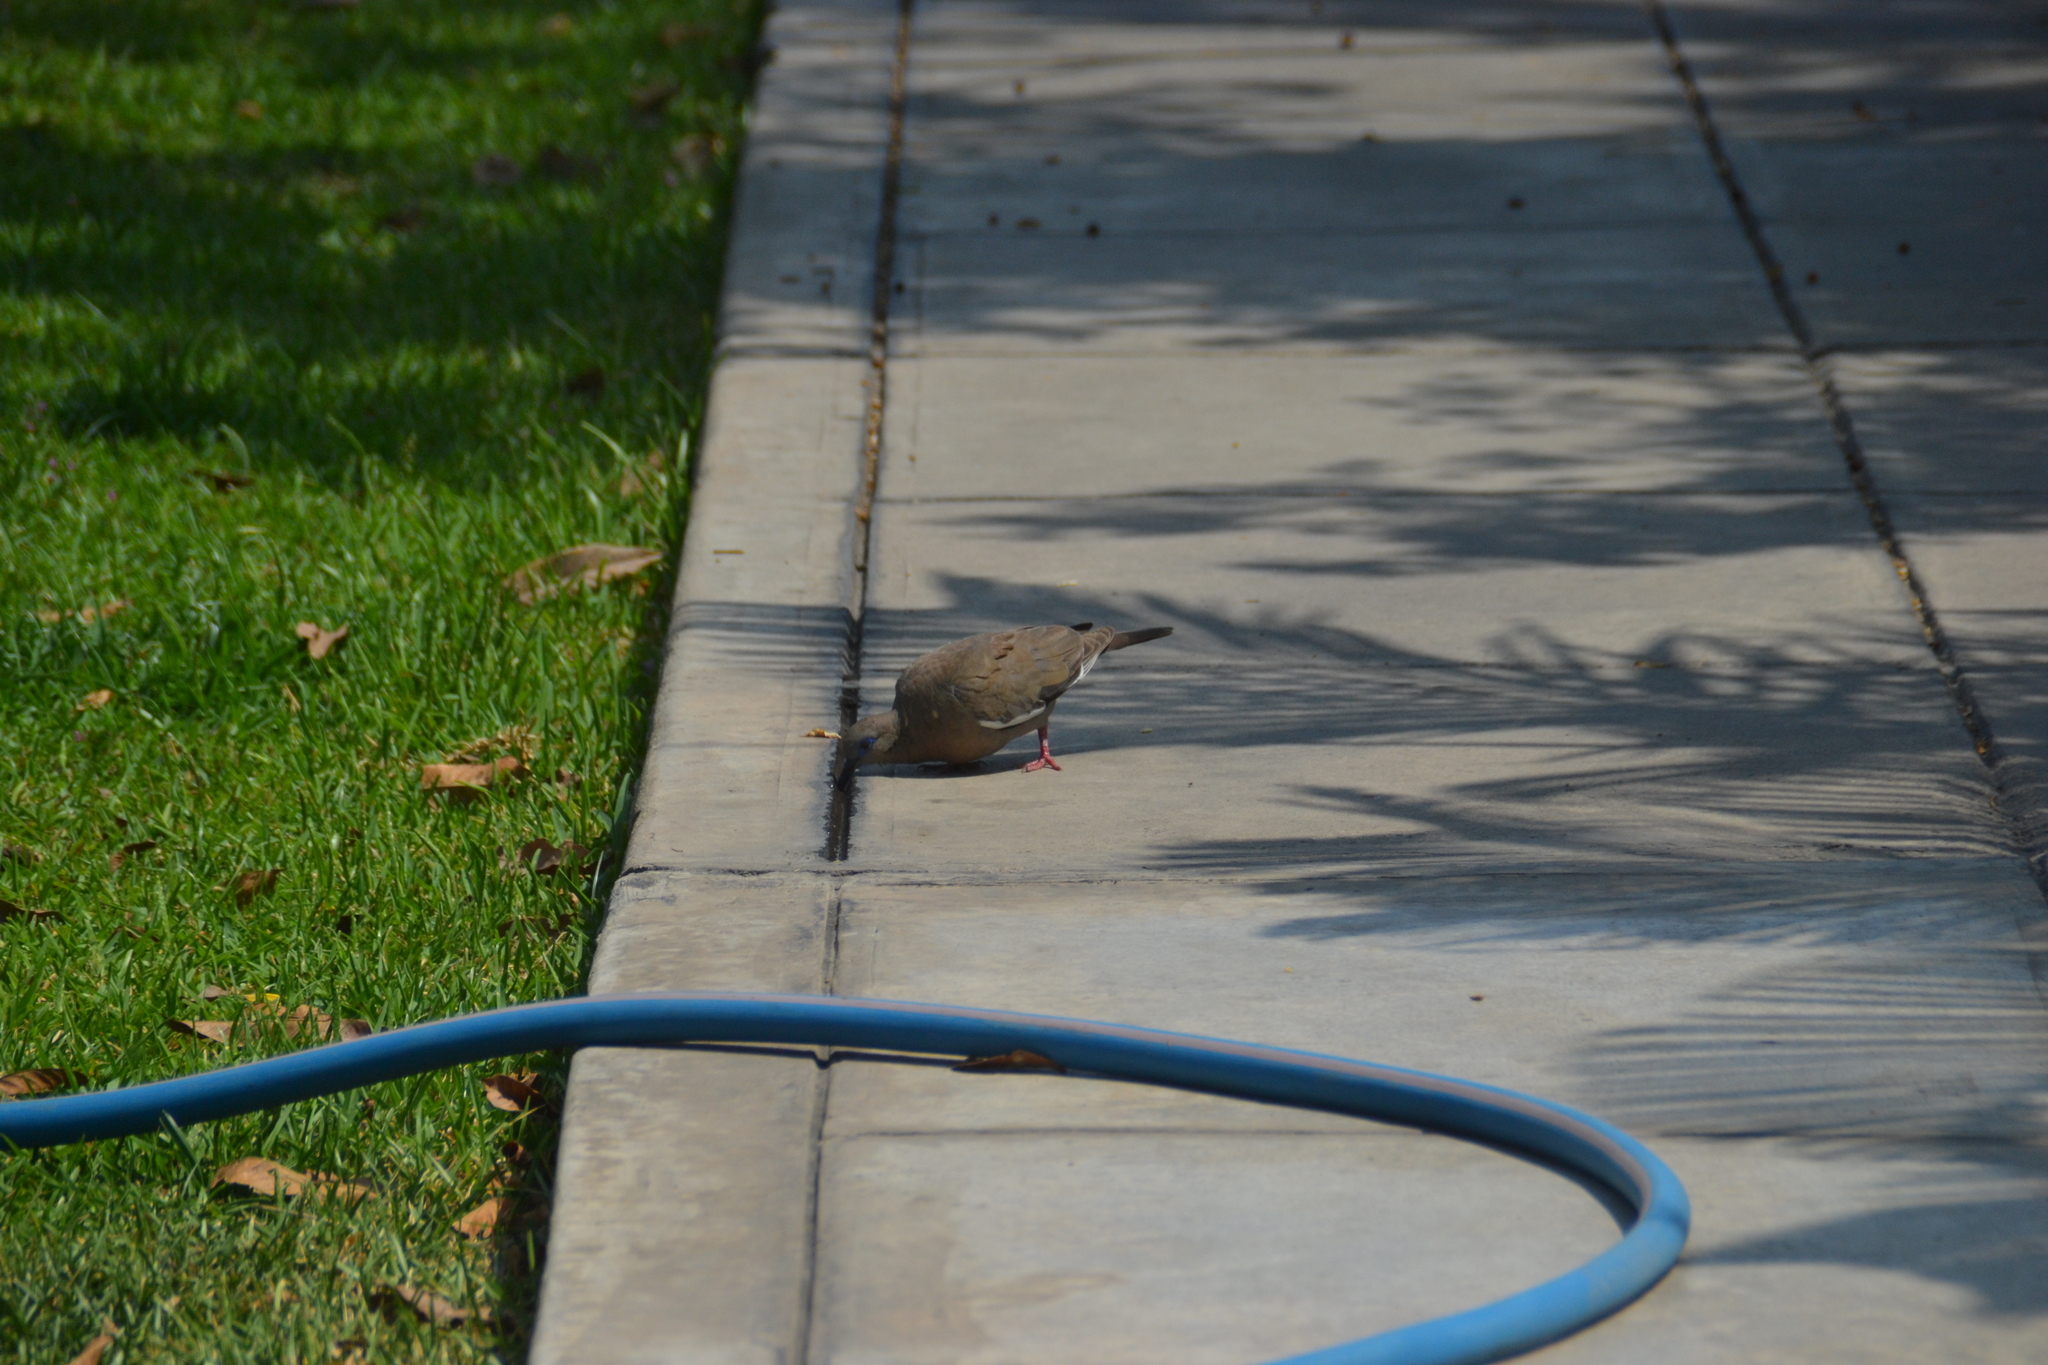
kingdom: Animalia
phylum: Chordata
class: Aves
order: Columbiformes
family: Columbidae
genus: Zenaida
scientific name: Zenaida meloda
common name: West peruvian dove
